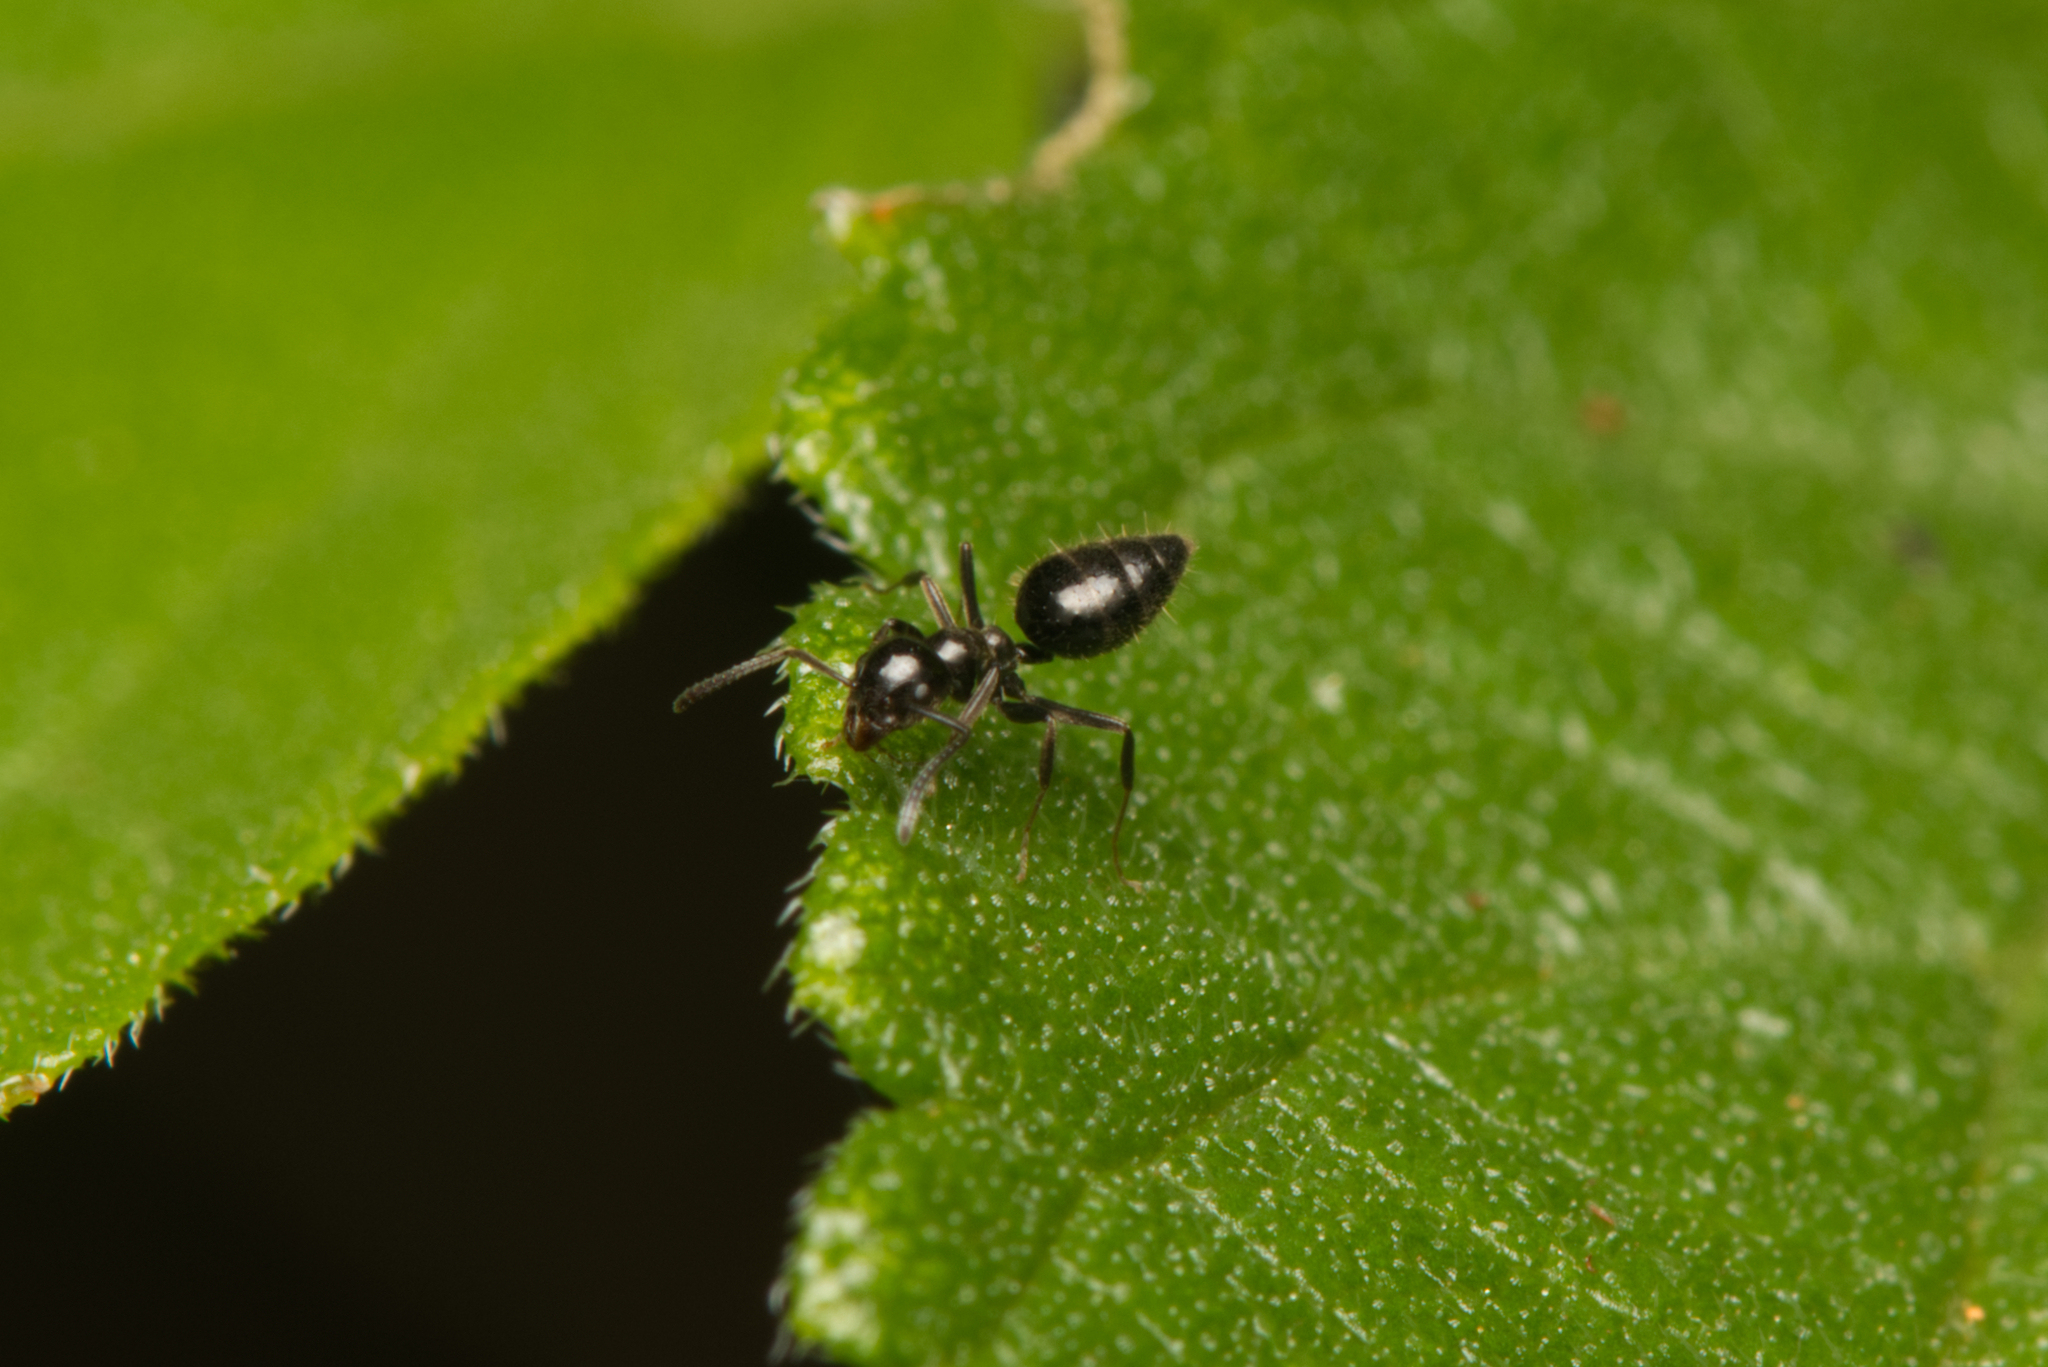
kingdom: Animalia
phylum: Arthropoda
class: Insecta
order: Hymenoptera
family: Formicidae
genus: Technomyrmex
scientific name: Technomyrmex sophiae
